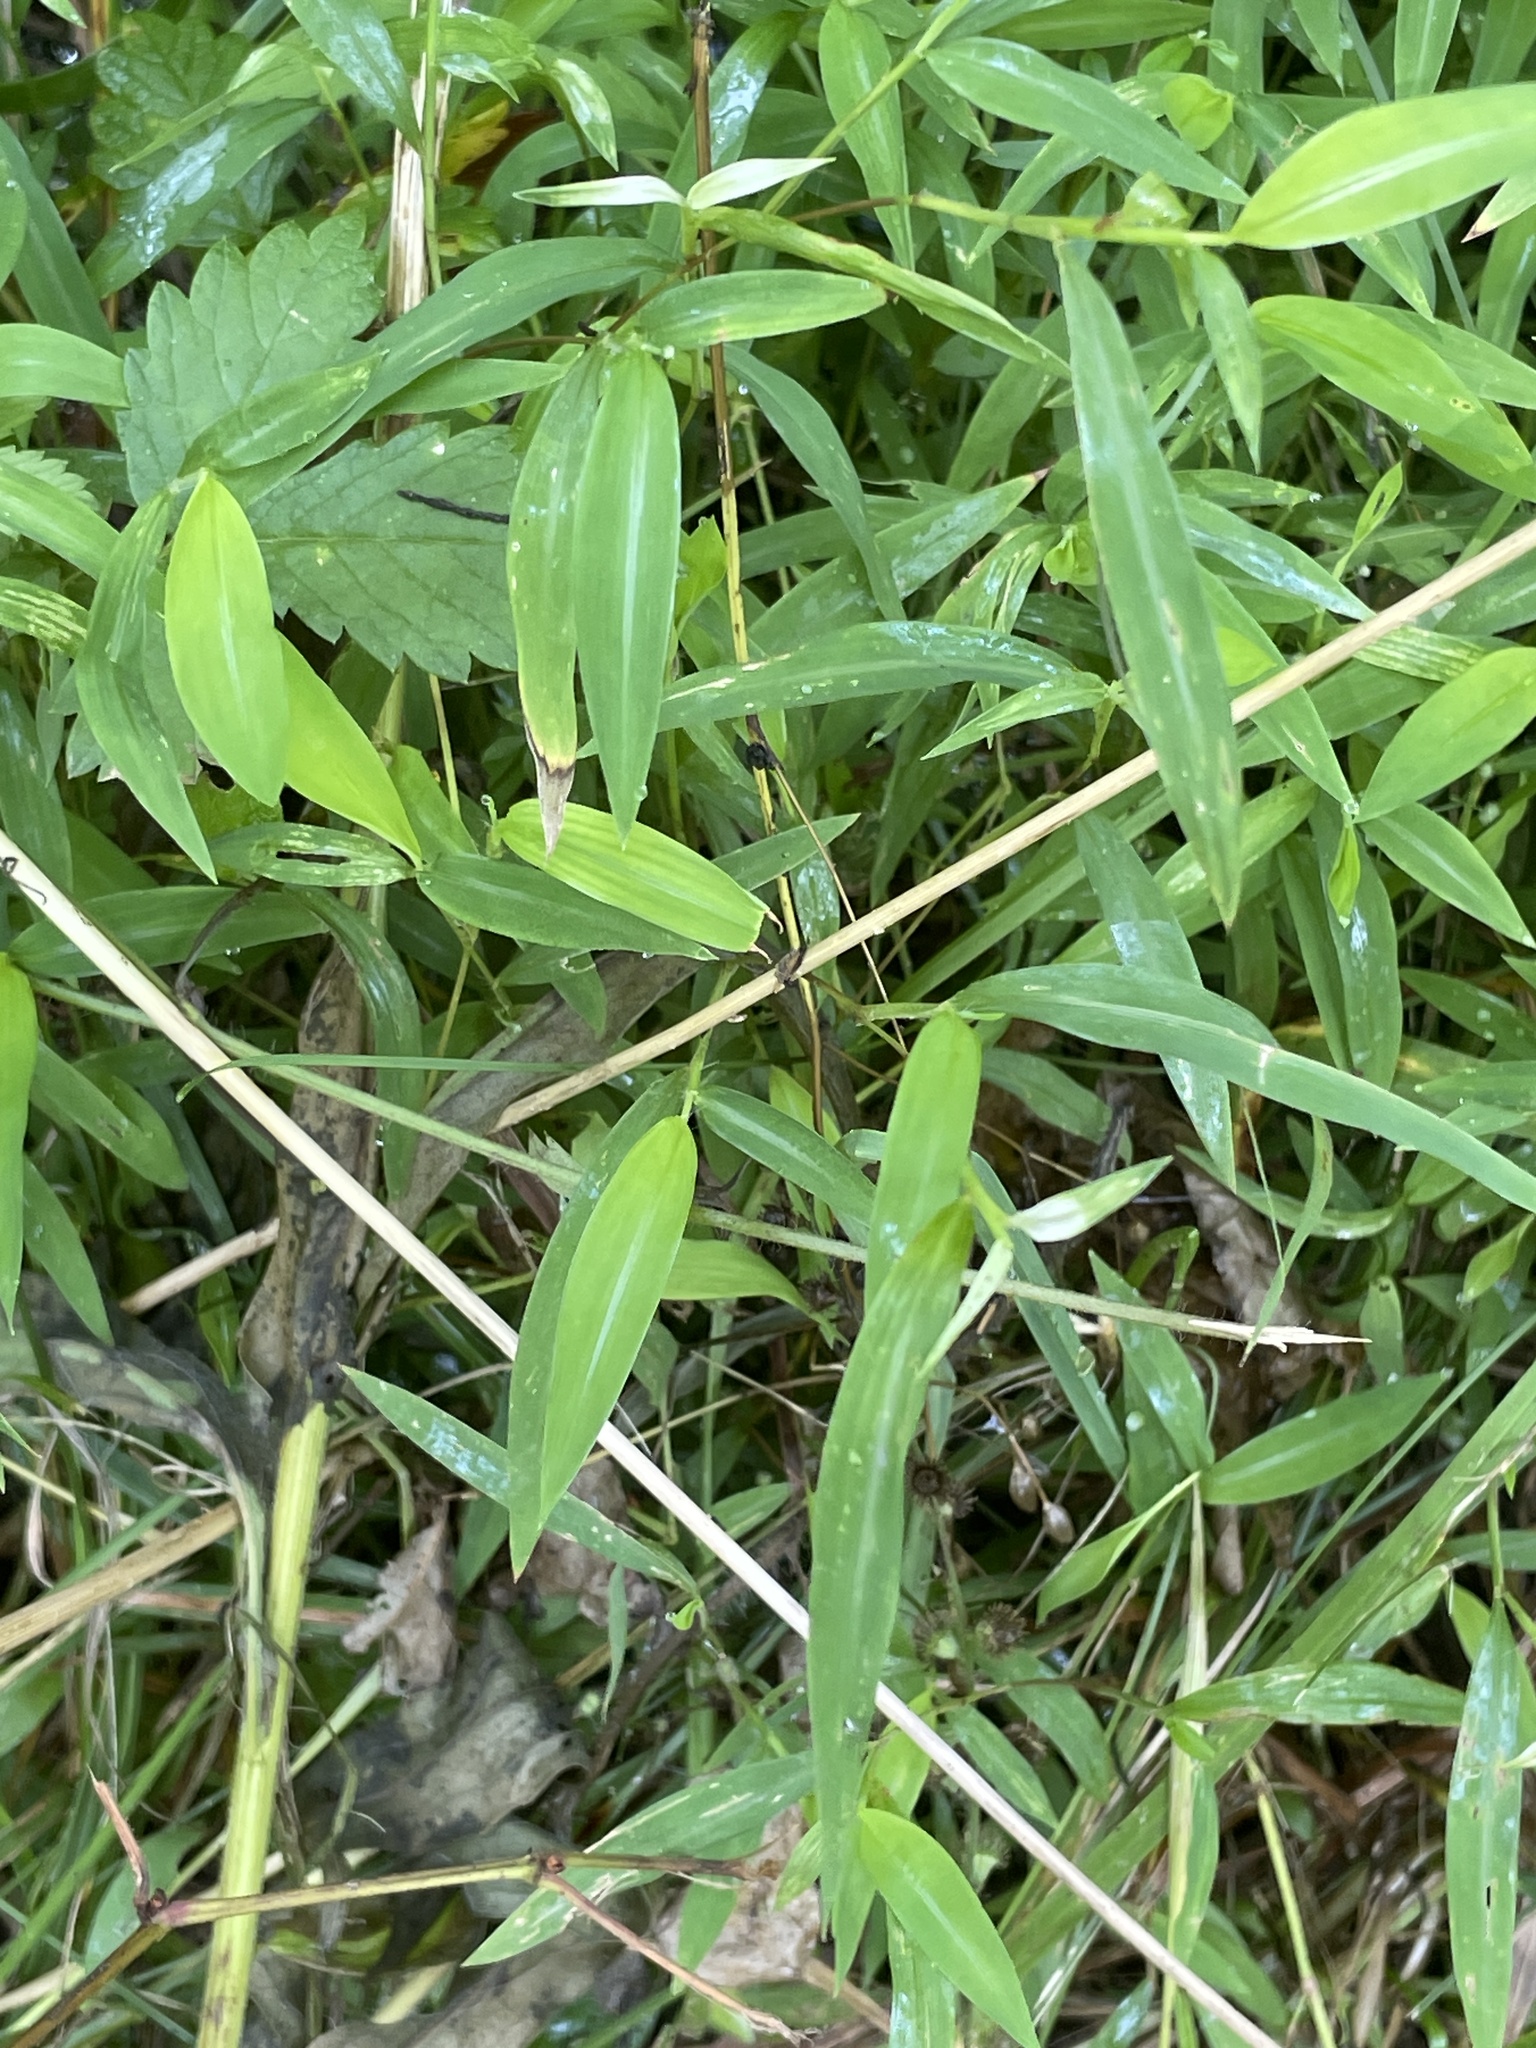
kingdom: Plantae
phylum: Tracheophyta
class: Liliopsida
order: Poales
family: Poaceae
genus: Microstegium
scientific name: Microstegium vimineum
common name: Japanese stiltgrass
